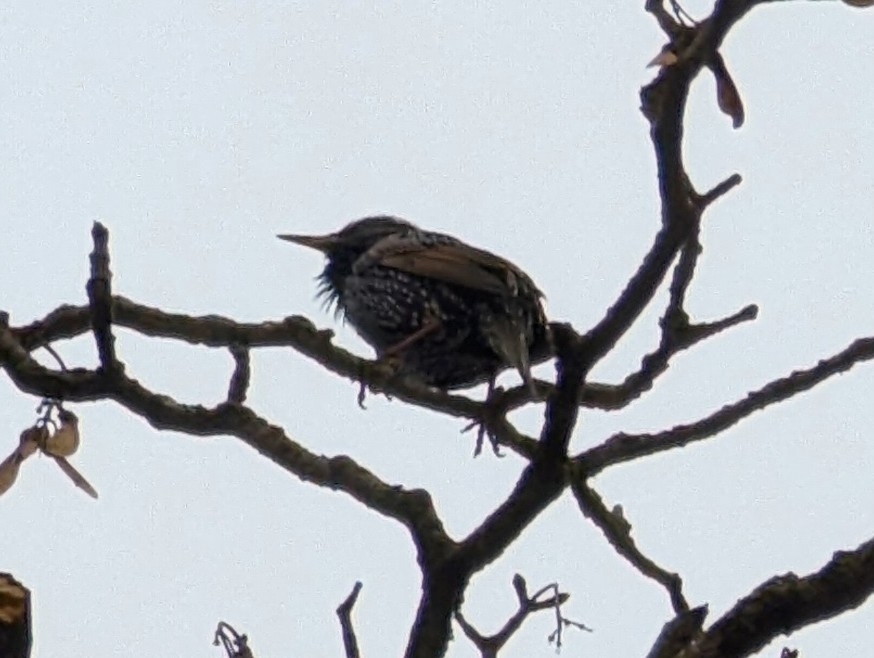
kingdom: Animalia
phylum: Chordata
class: Aves
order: Passeriformes
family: Sturnidae
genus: Sturnus
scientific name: Sturnus vulgaris
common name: Common starling
